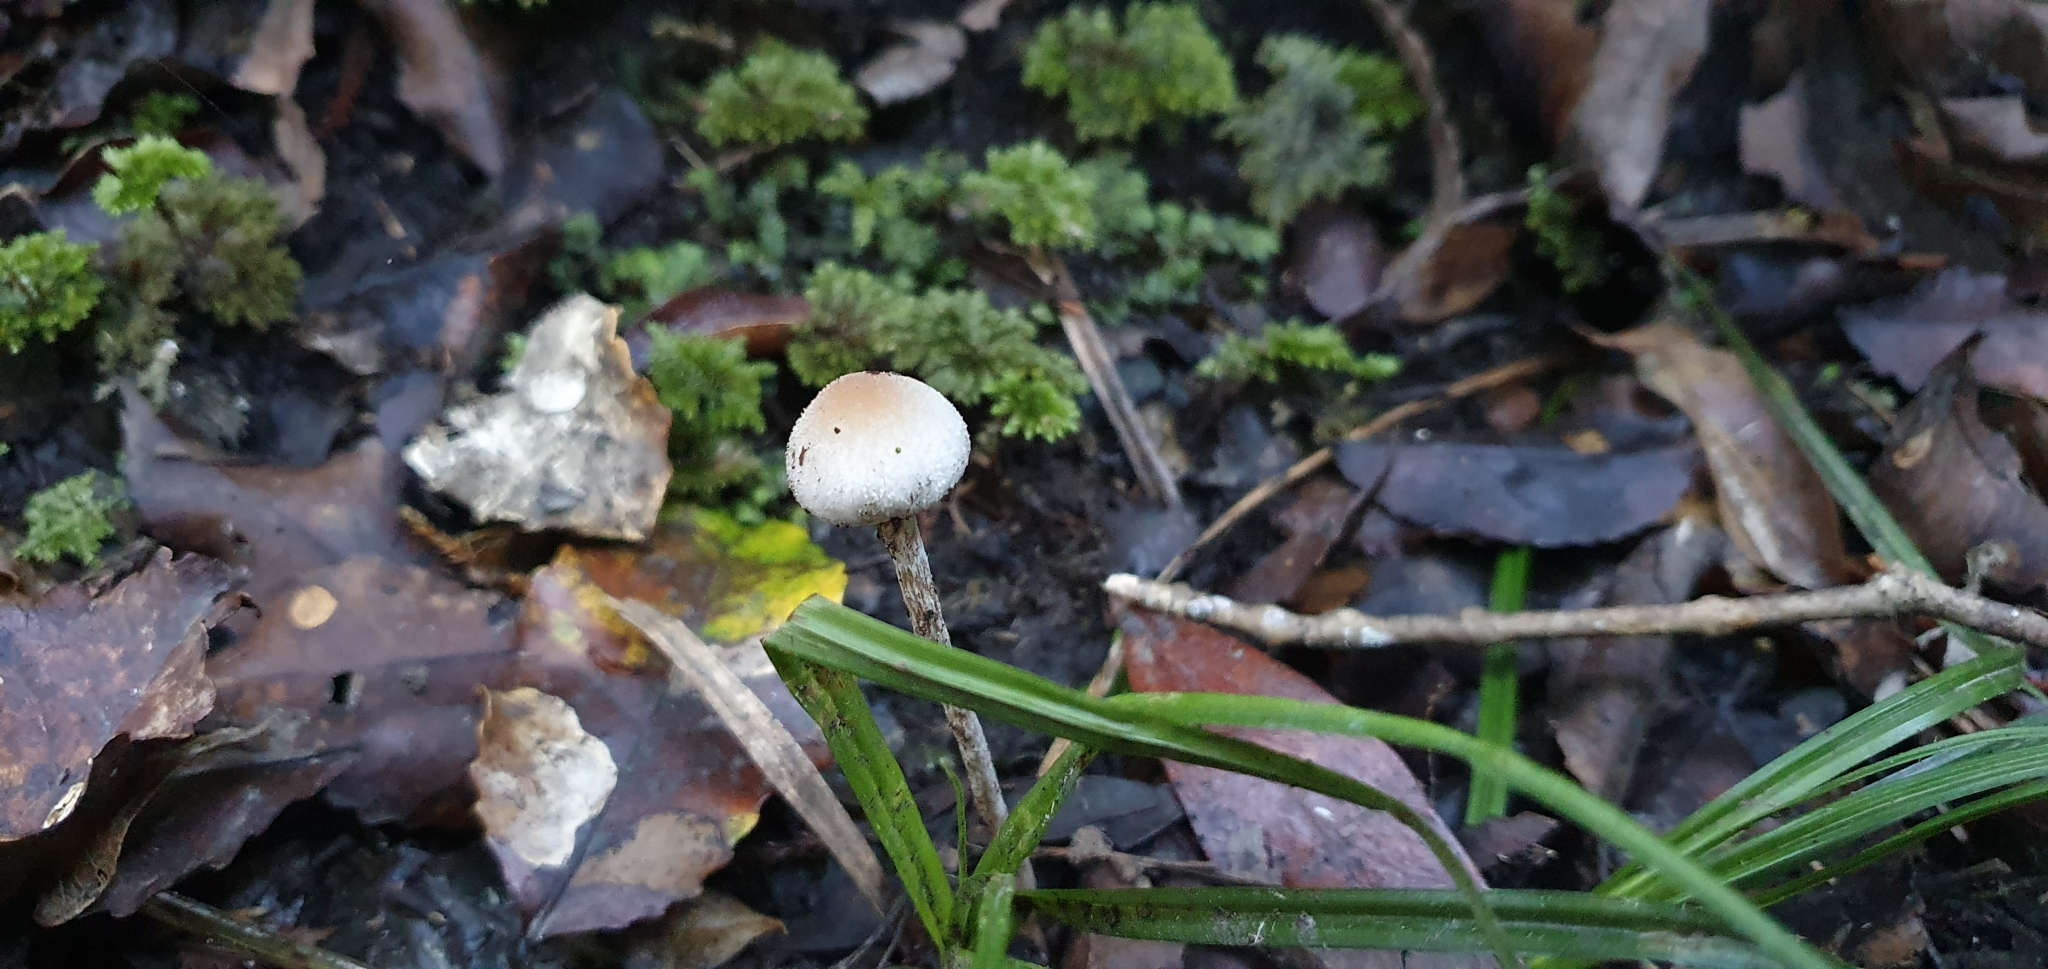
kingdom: Fungi
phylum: Basidiomycota
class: Agaricomycetes
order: Agaricales
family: Bolbitiaceae
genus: Tympanella
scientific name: Tympanella galanthina
